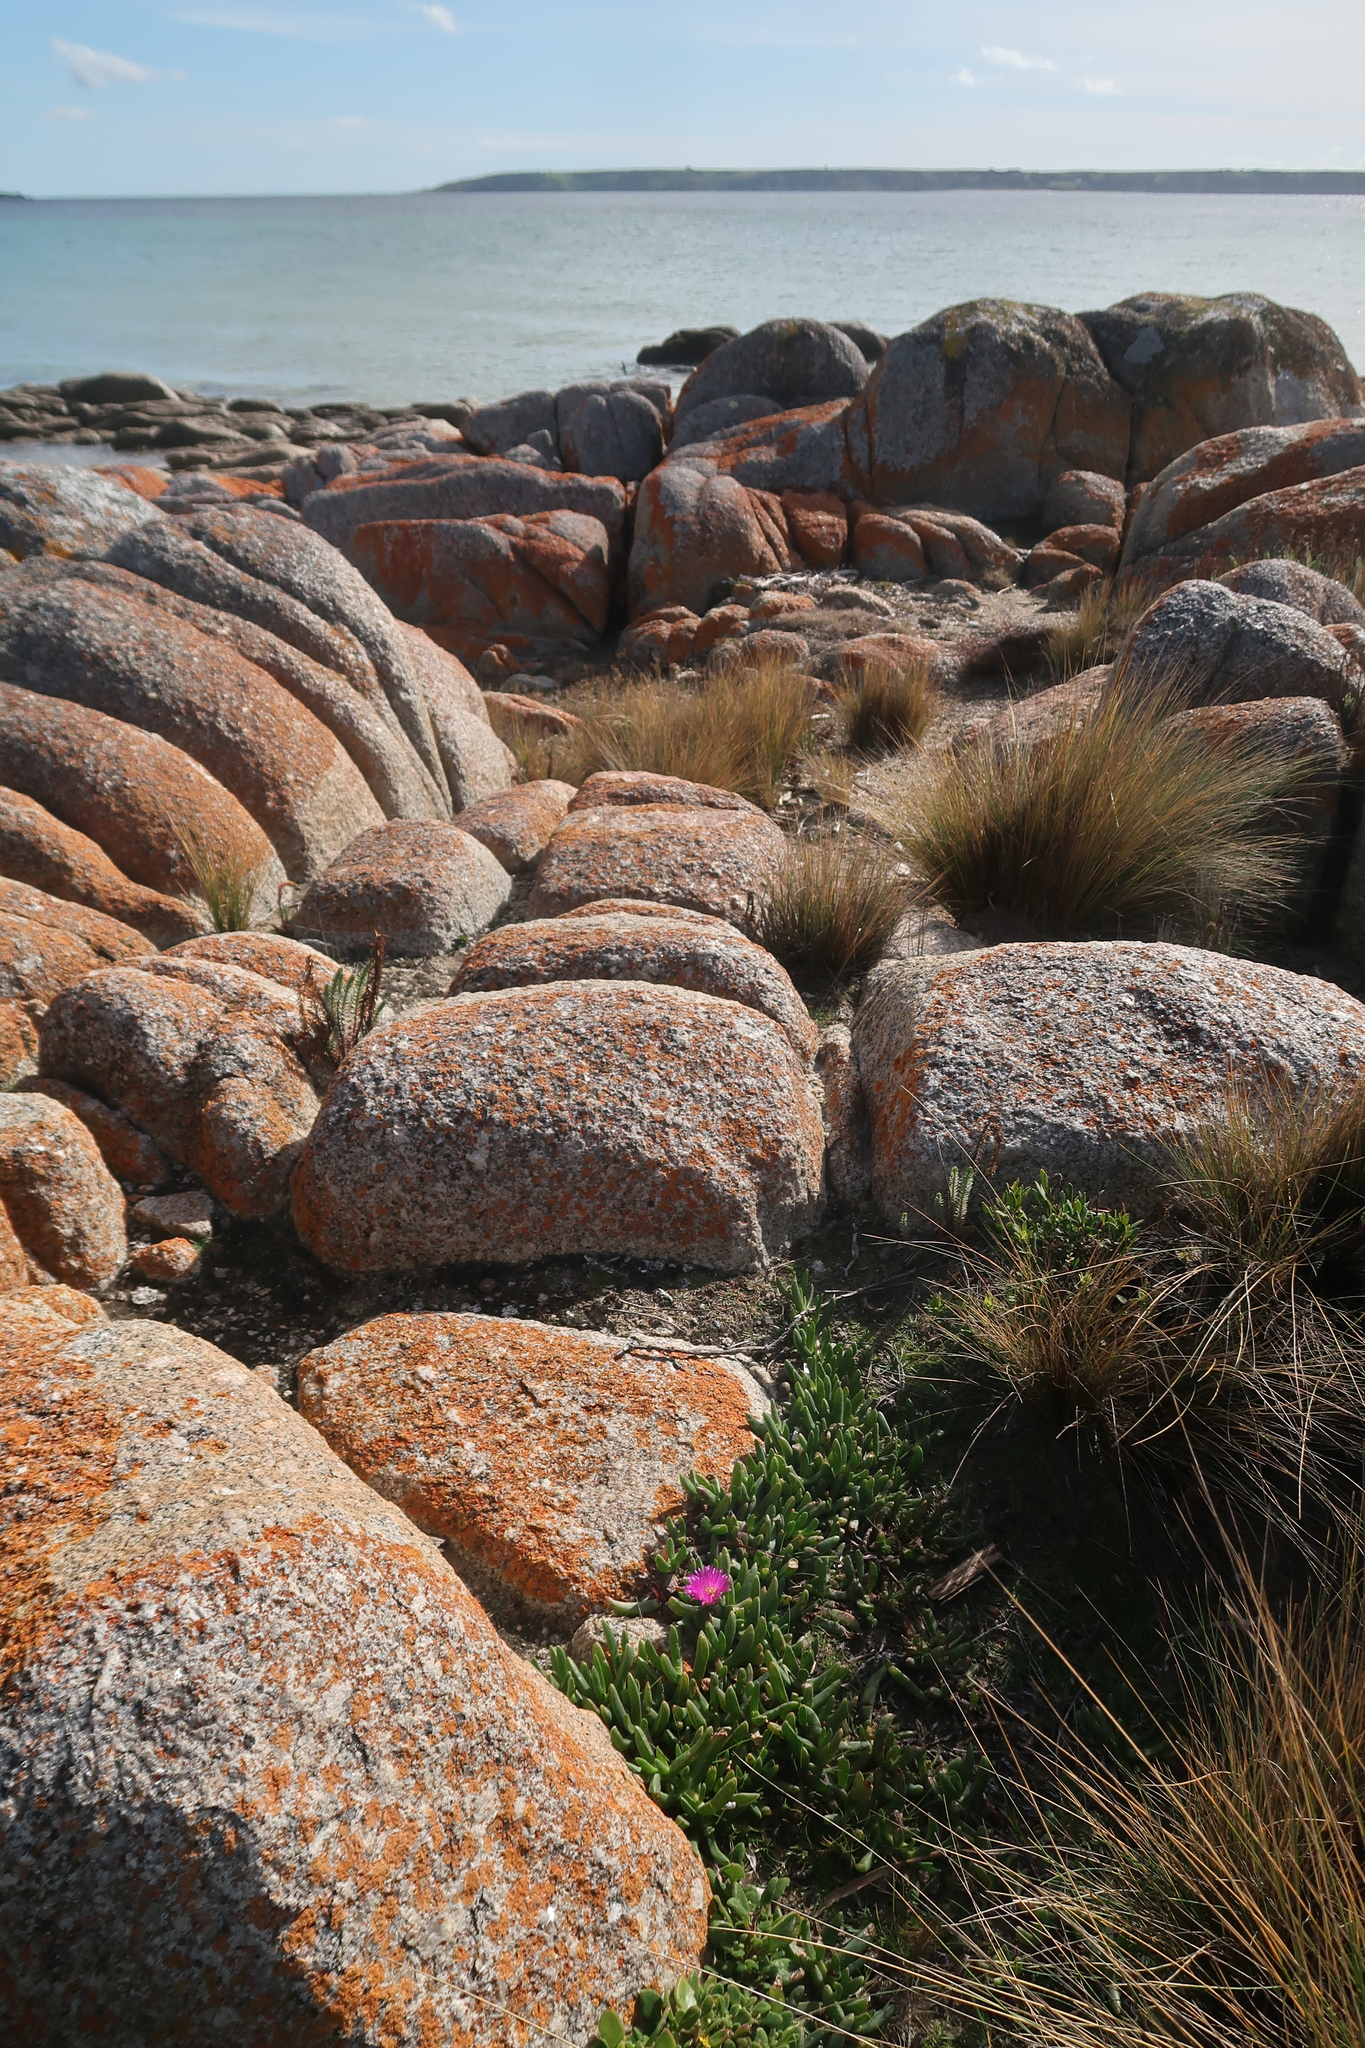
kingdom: Plantae
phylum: Tracheophyta
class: Magnoliopsida
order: Caryophyllales
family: Aizoaceae
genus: Carpobrotus
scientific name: Carpobrotus rossii
